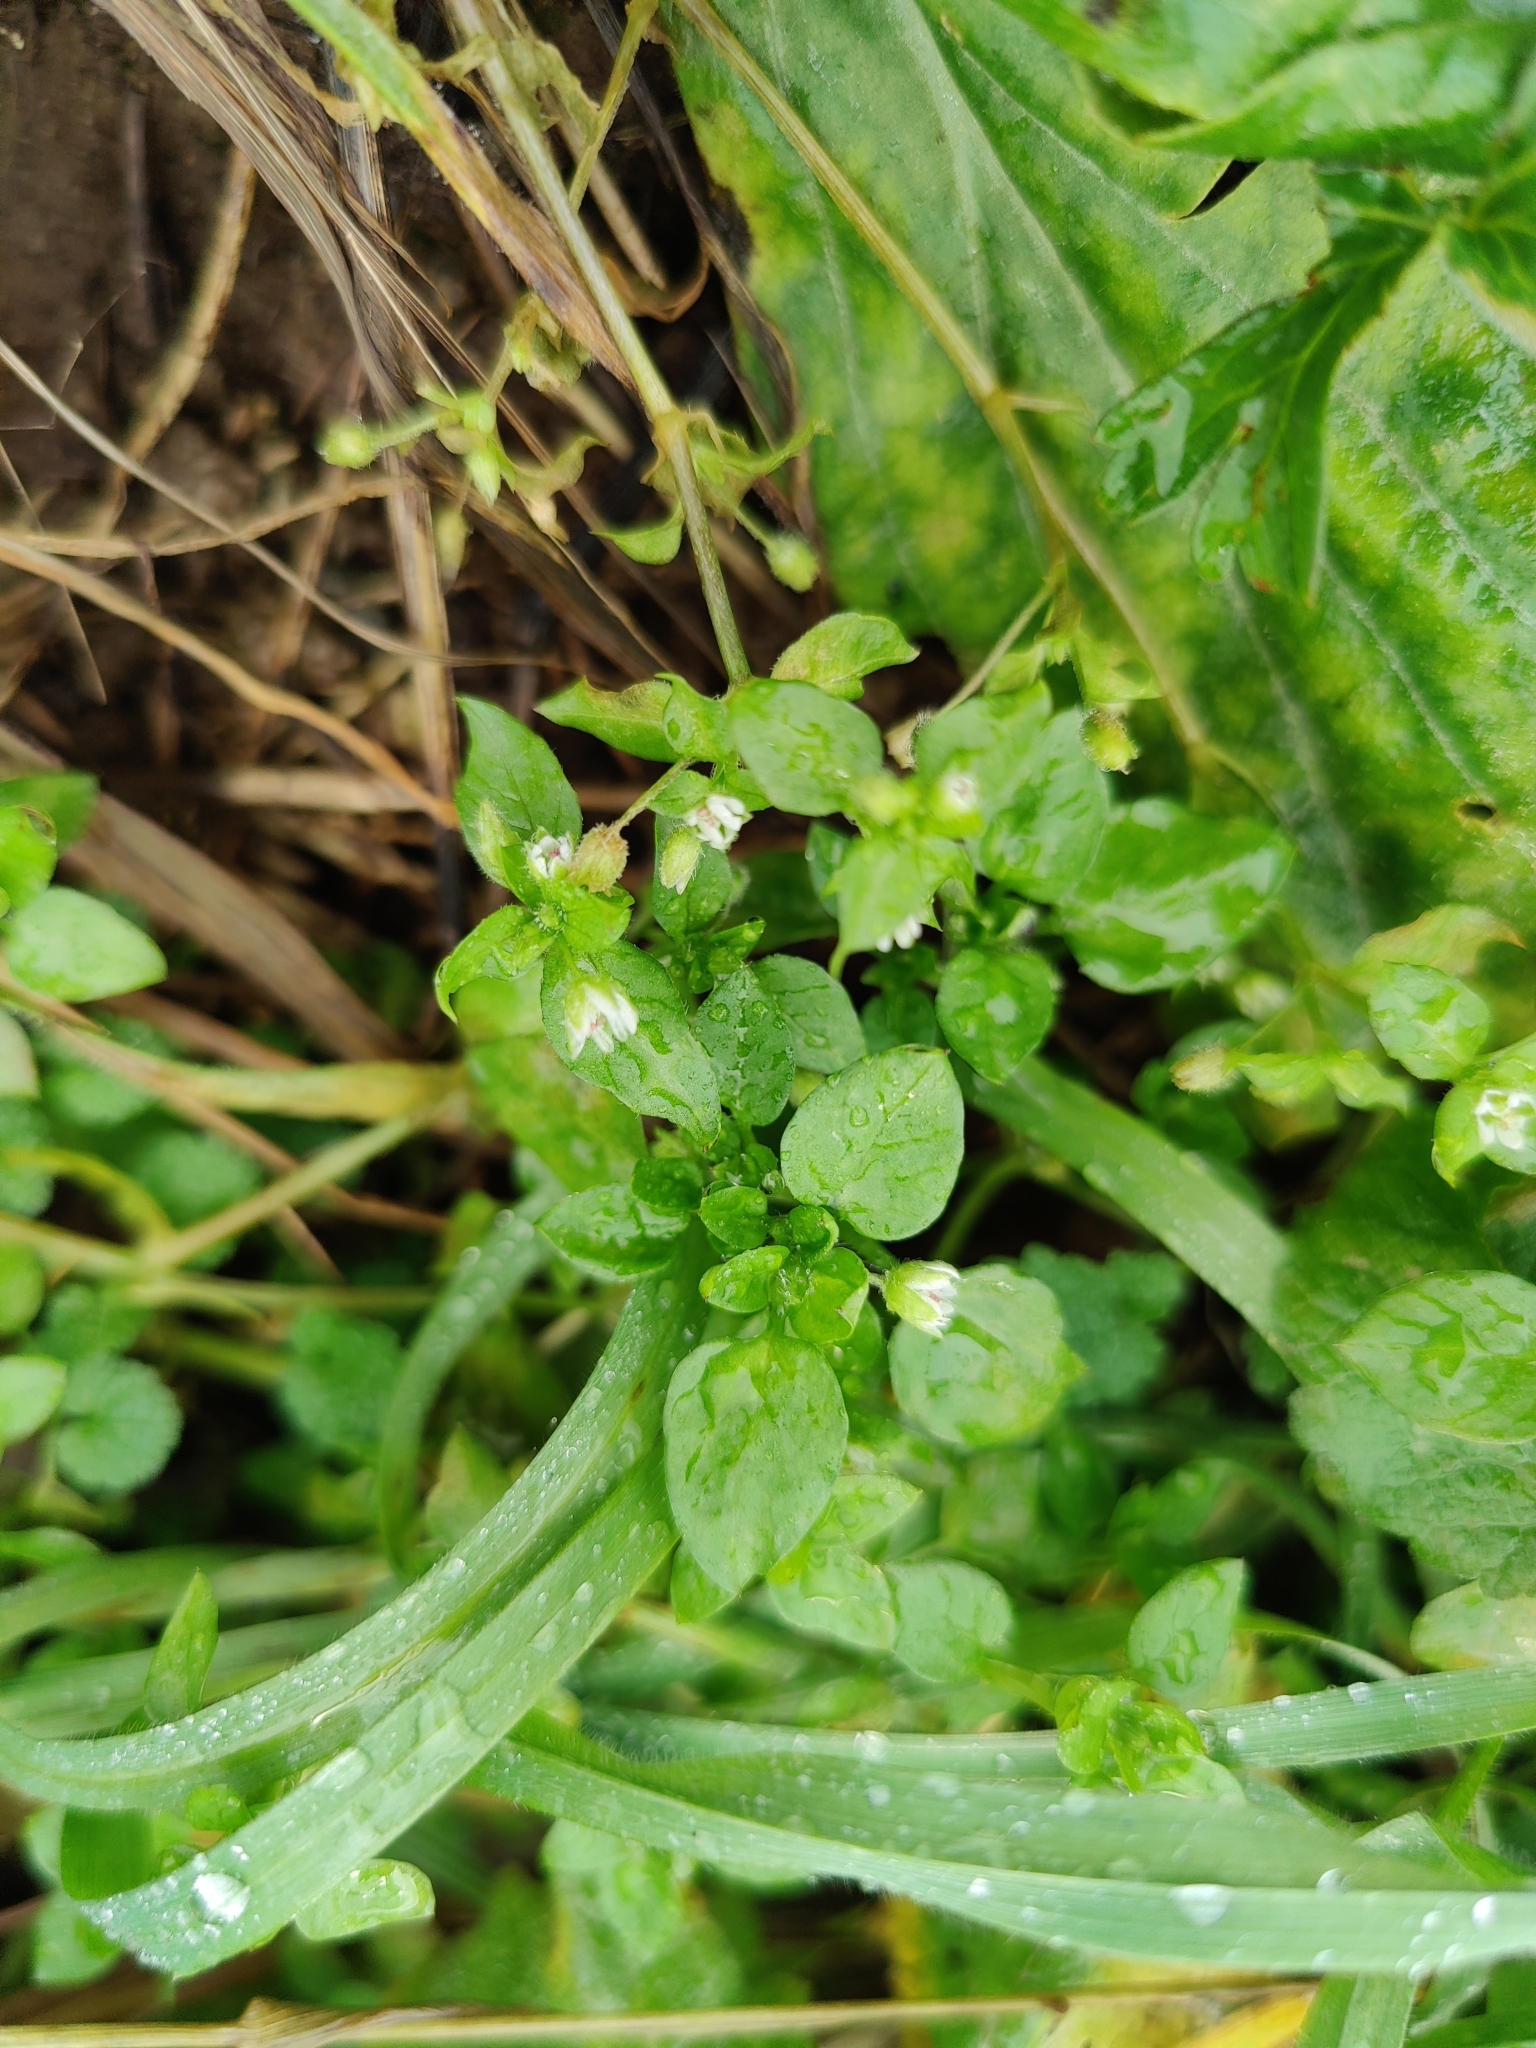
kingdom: Plantae
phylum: Tracheophyta
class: Magnoliopsida
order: Caryophyllales
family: Caryophyllaceae
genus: Stellaria
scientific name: Stellaria media
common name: Common chickweed
